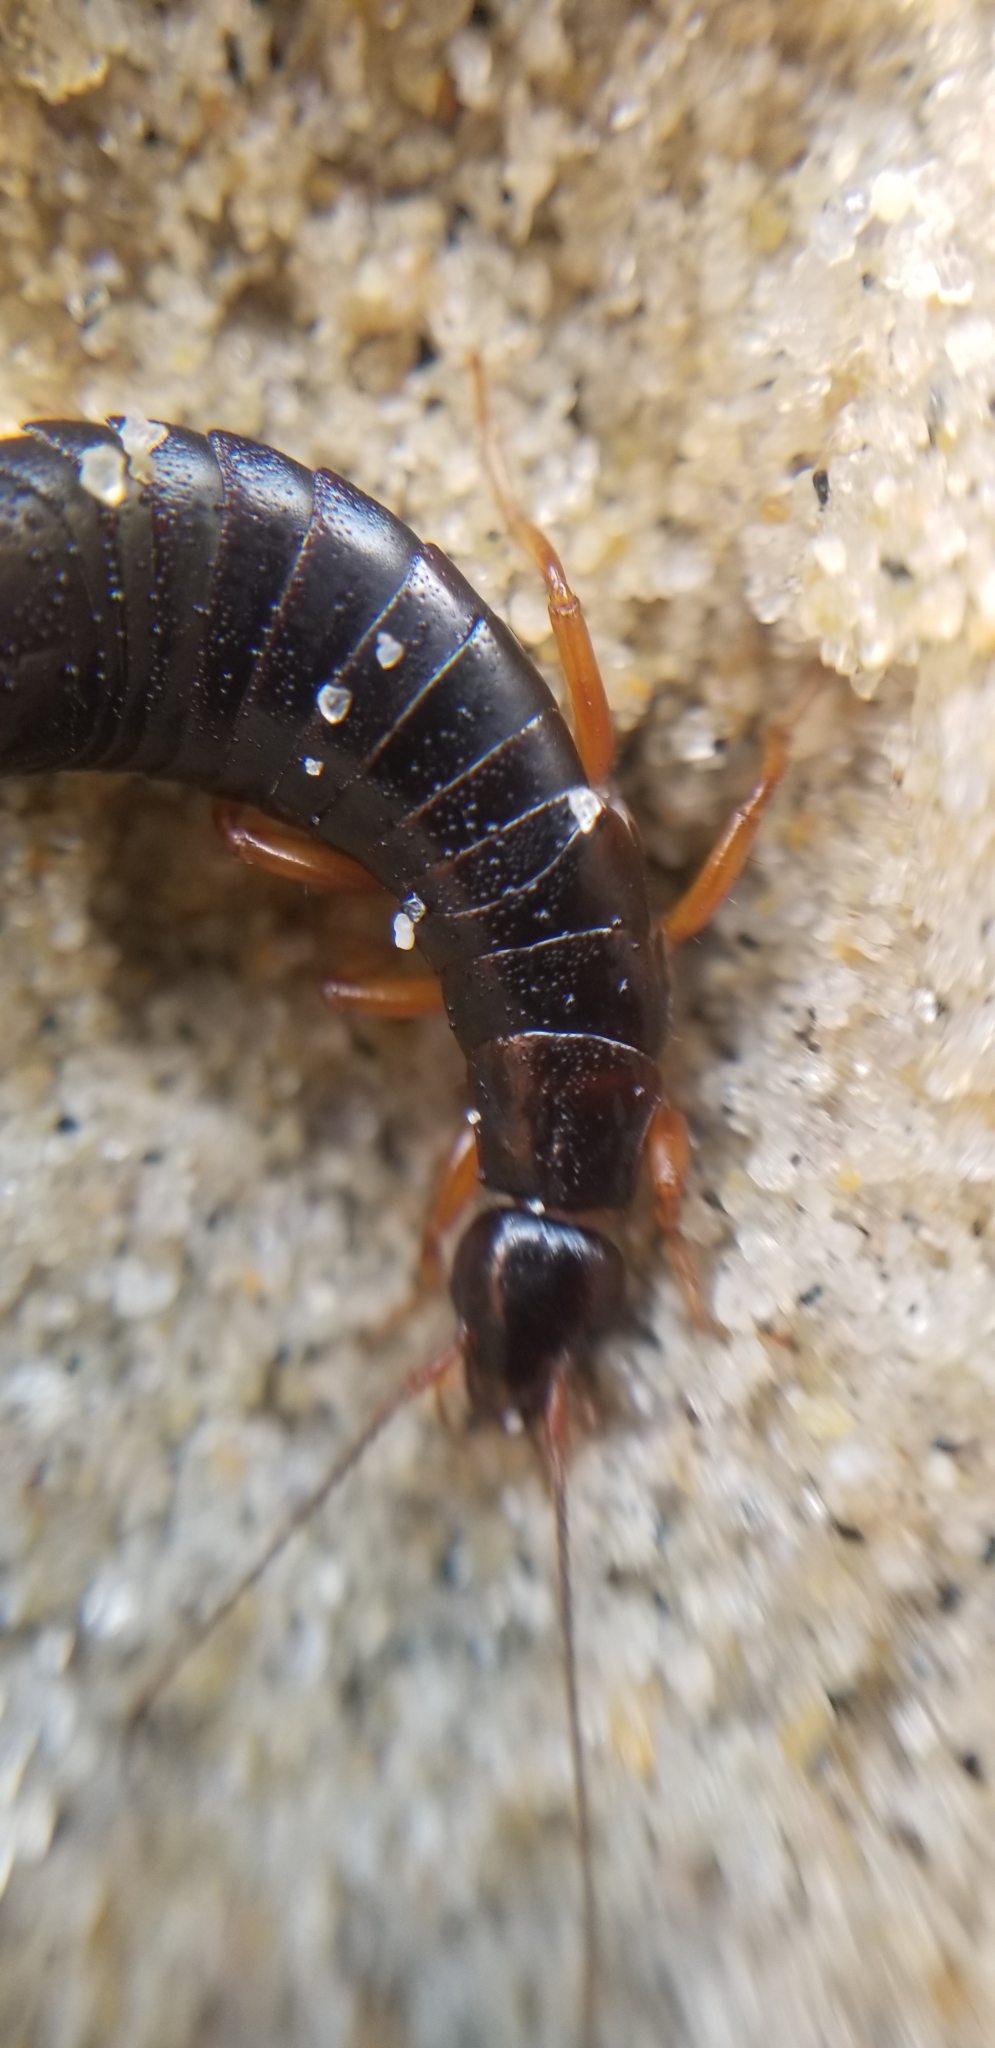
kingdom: Animalia
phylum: Arthropoda
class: Insecta
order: Dermaptera
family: Anisolabididae
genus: Anisolabis
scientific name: Anisolabis maritima
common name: Maritime earwig
